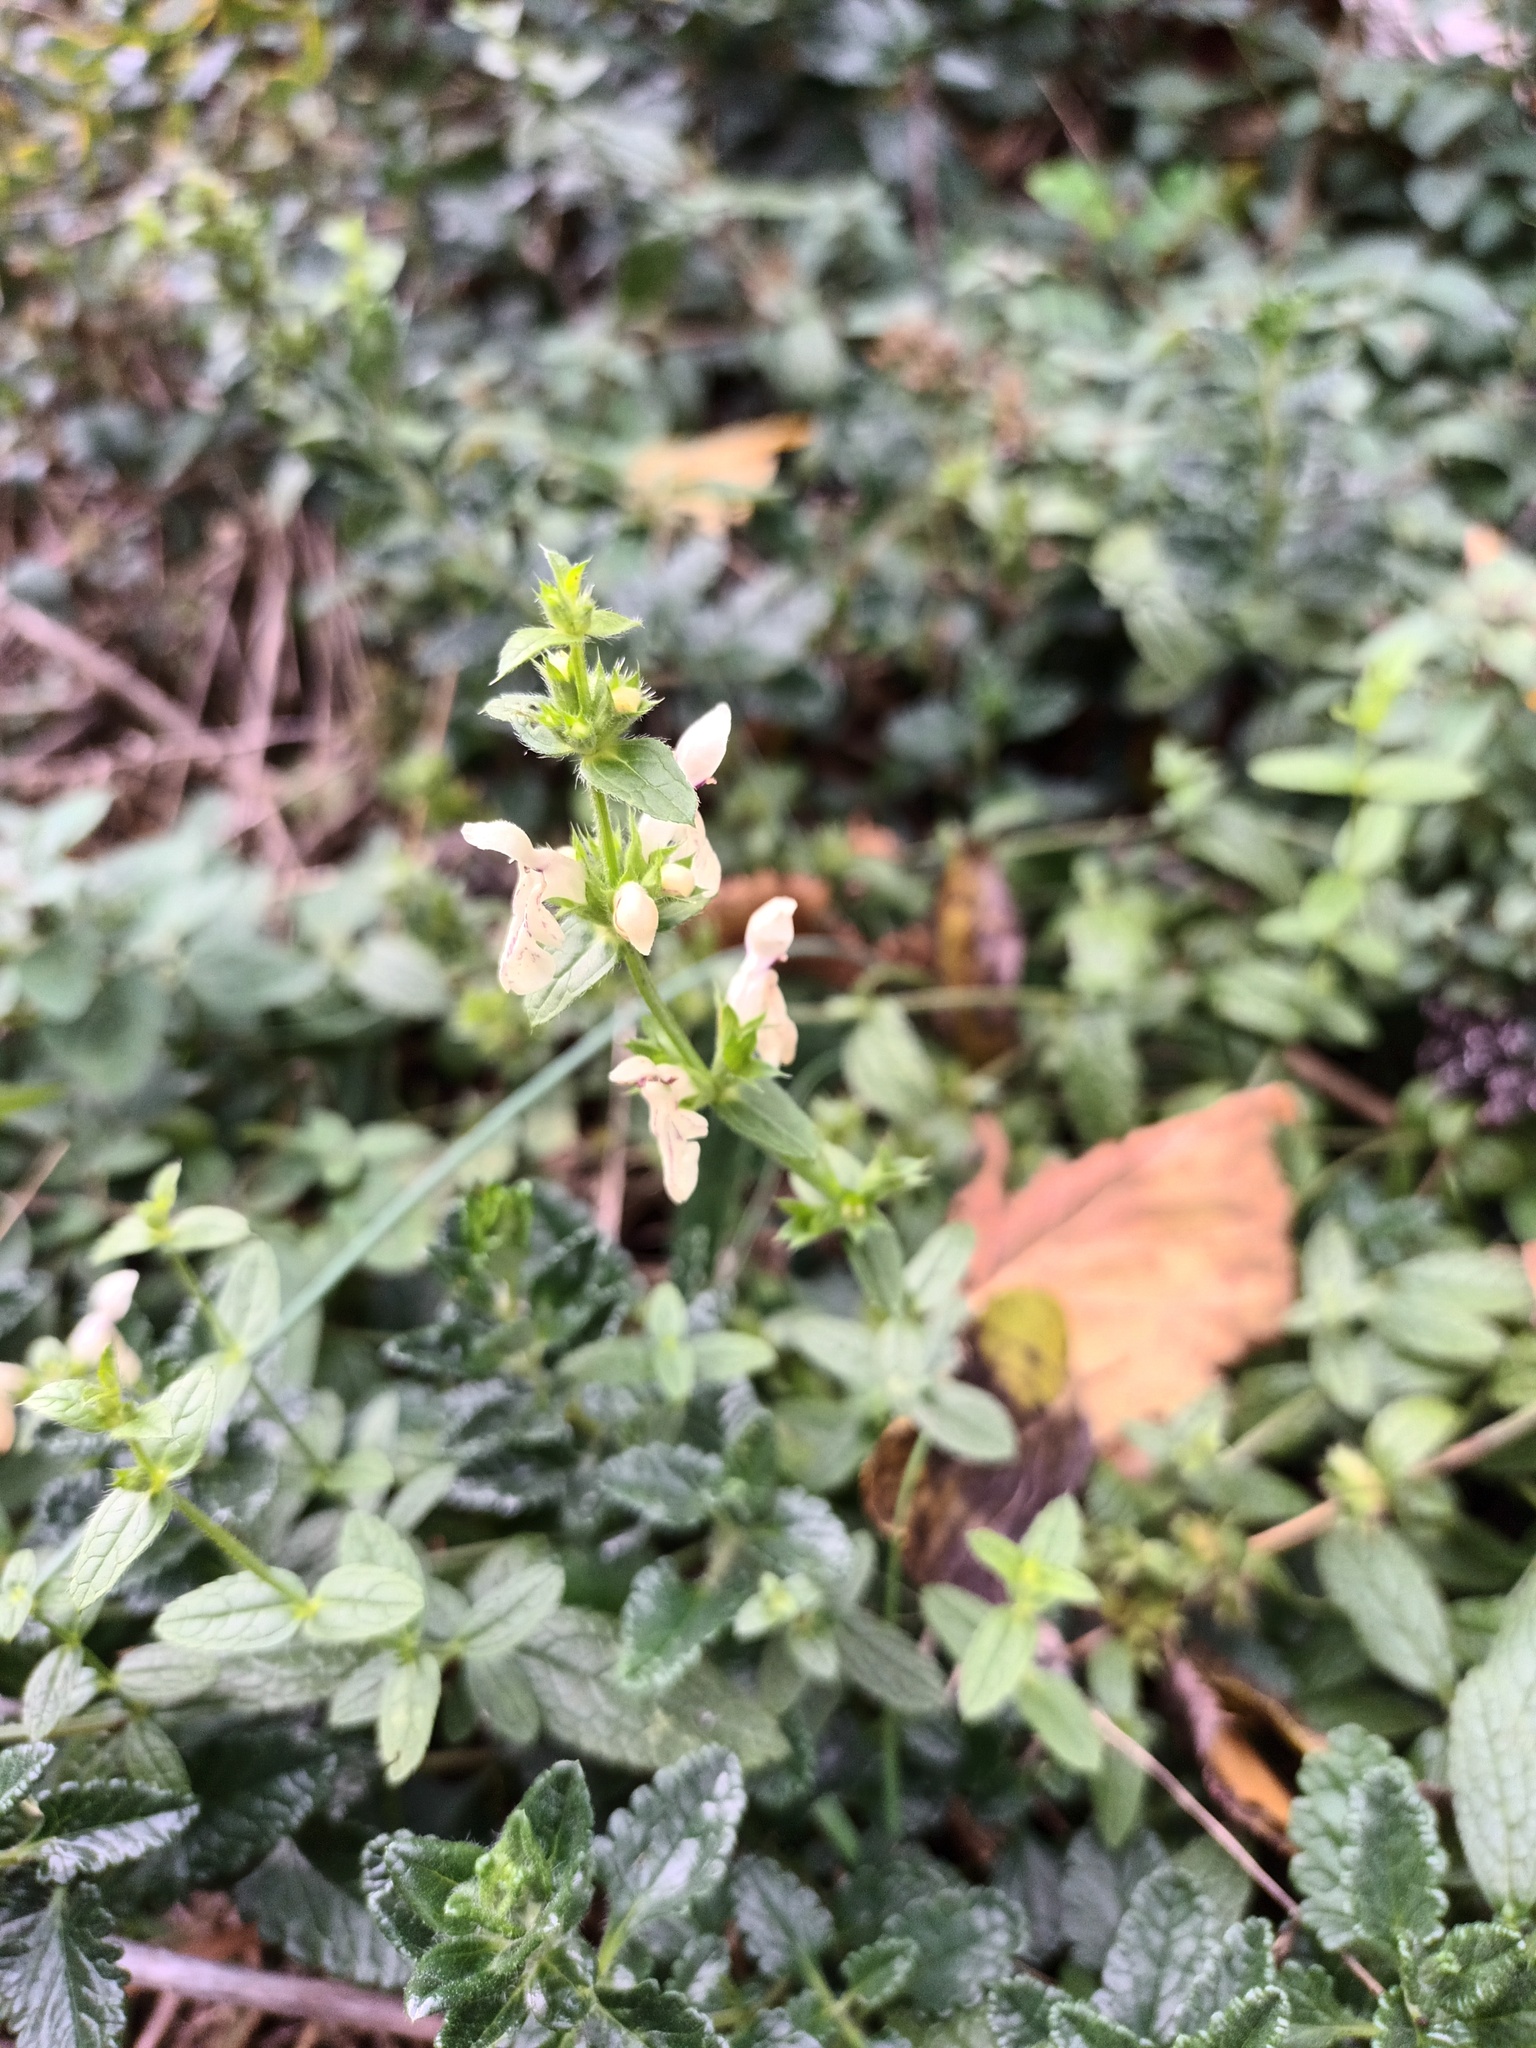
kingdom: Plantae
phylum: Tracheophyta
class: Magnoliopsida
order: Lamiales
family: Lamiaceae
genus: Stachys
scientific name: Stachys recta
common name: Perennial yellow-woundwort
